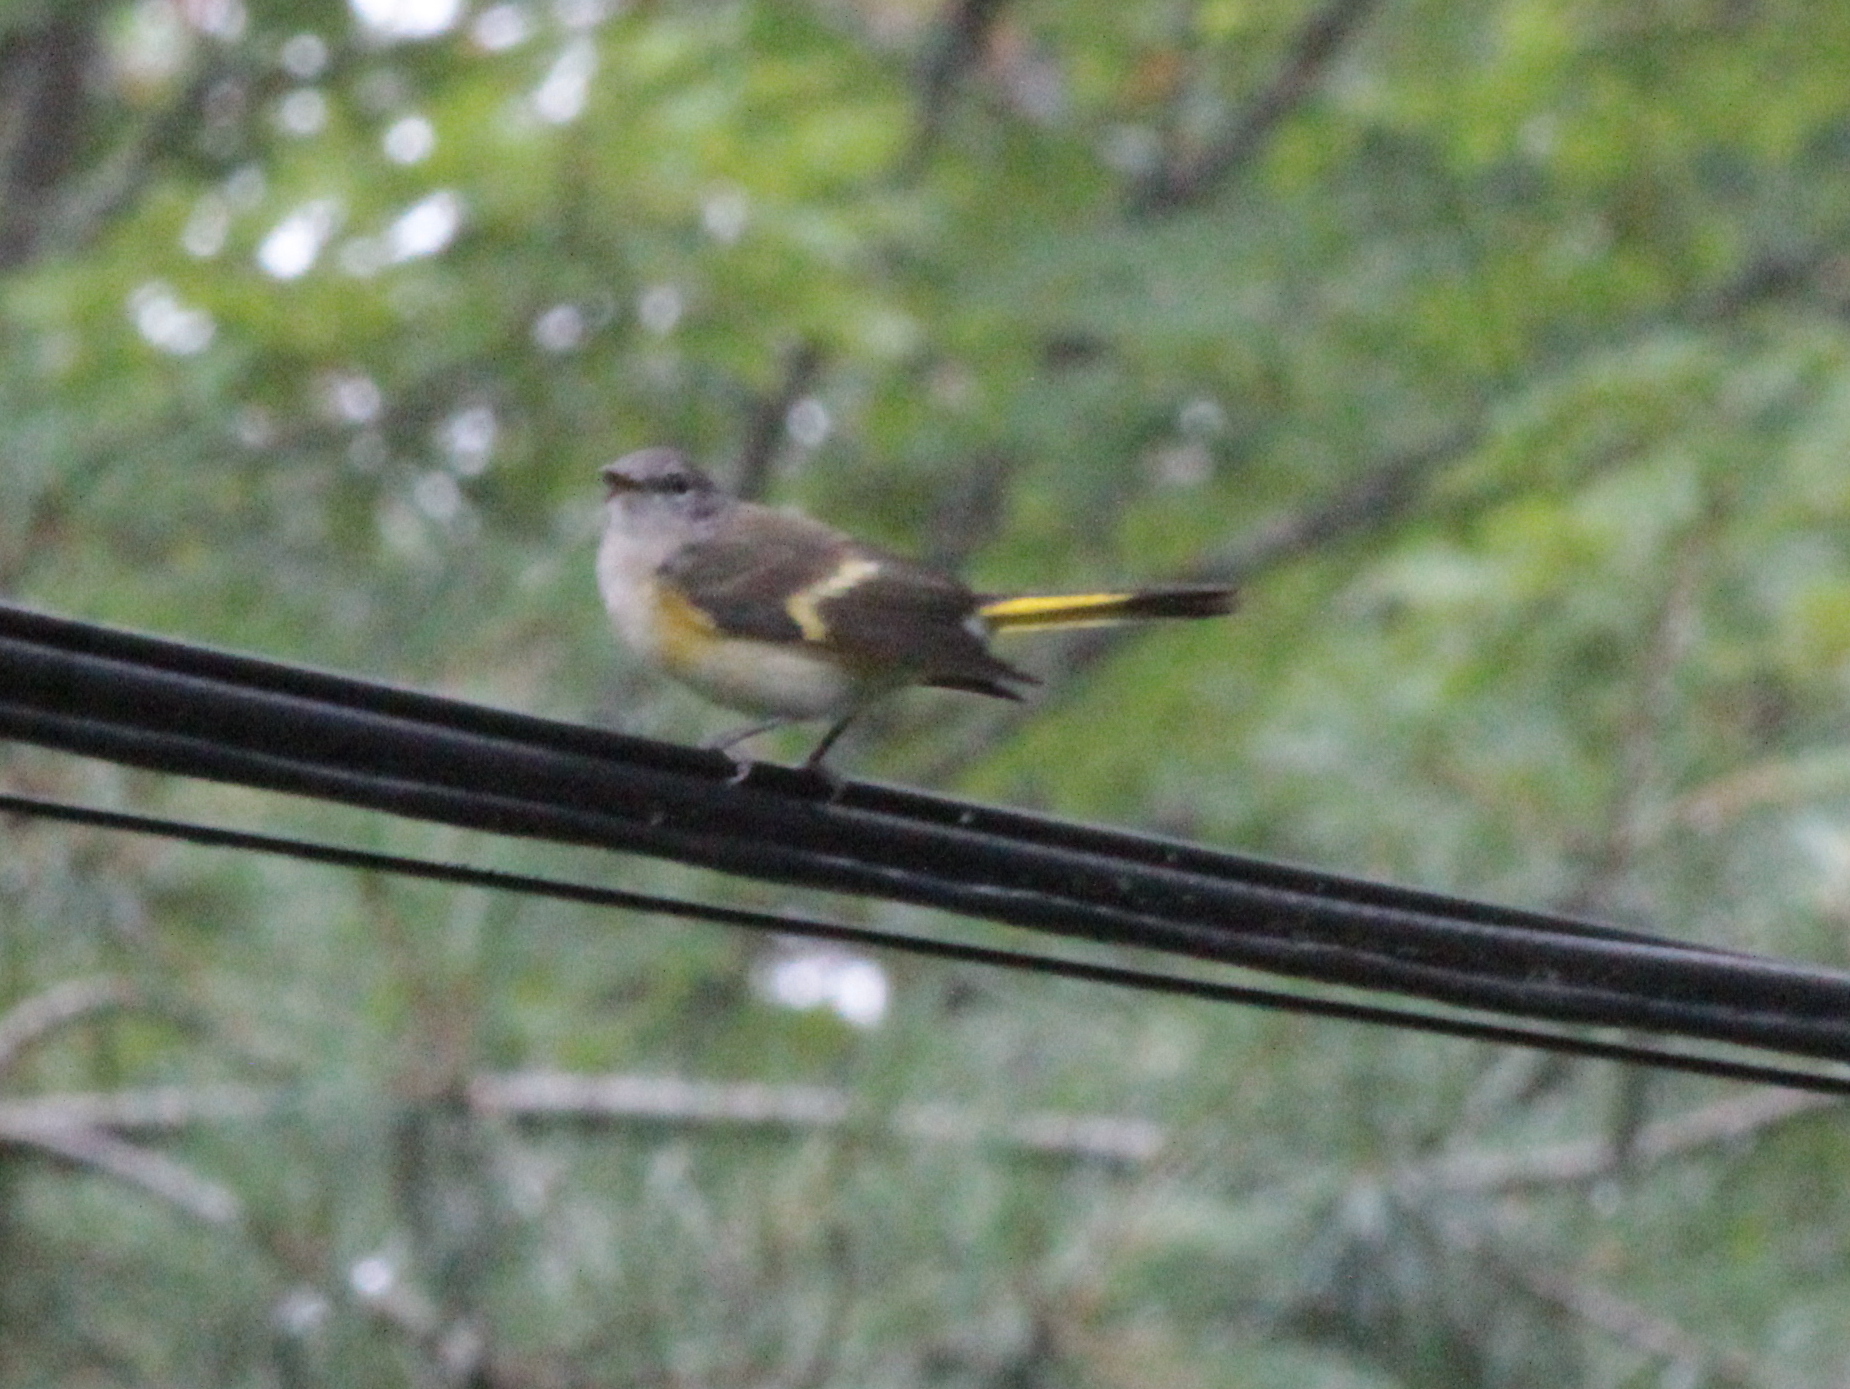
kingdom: Animalia
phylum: Chordata
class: Aves
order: Passeriformes
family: Parulidae
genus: Setophaga
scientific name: Setophaga ruticilla
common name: American redstart
